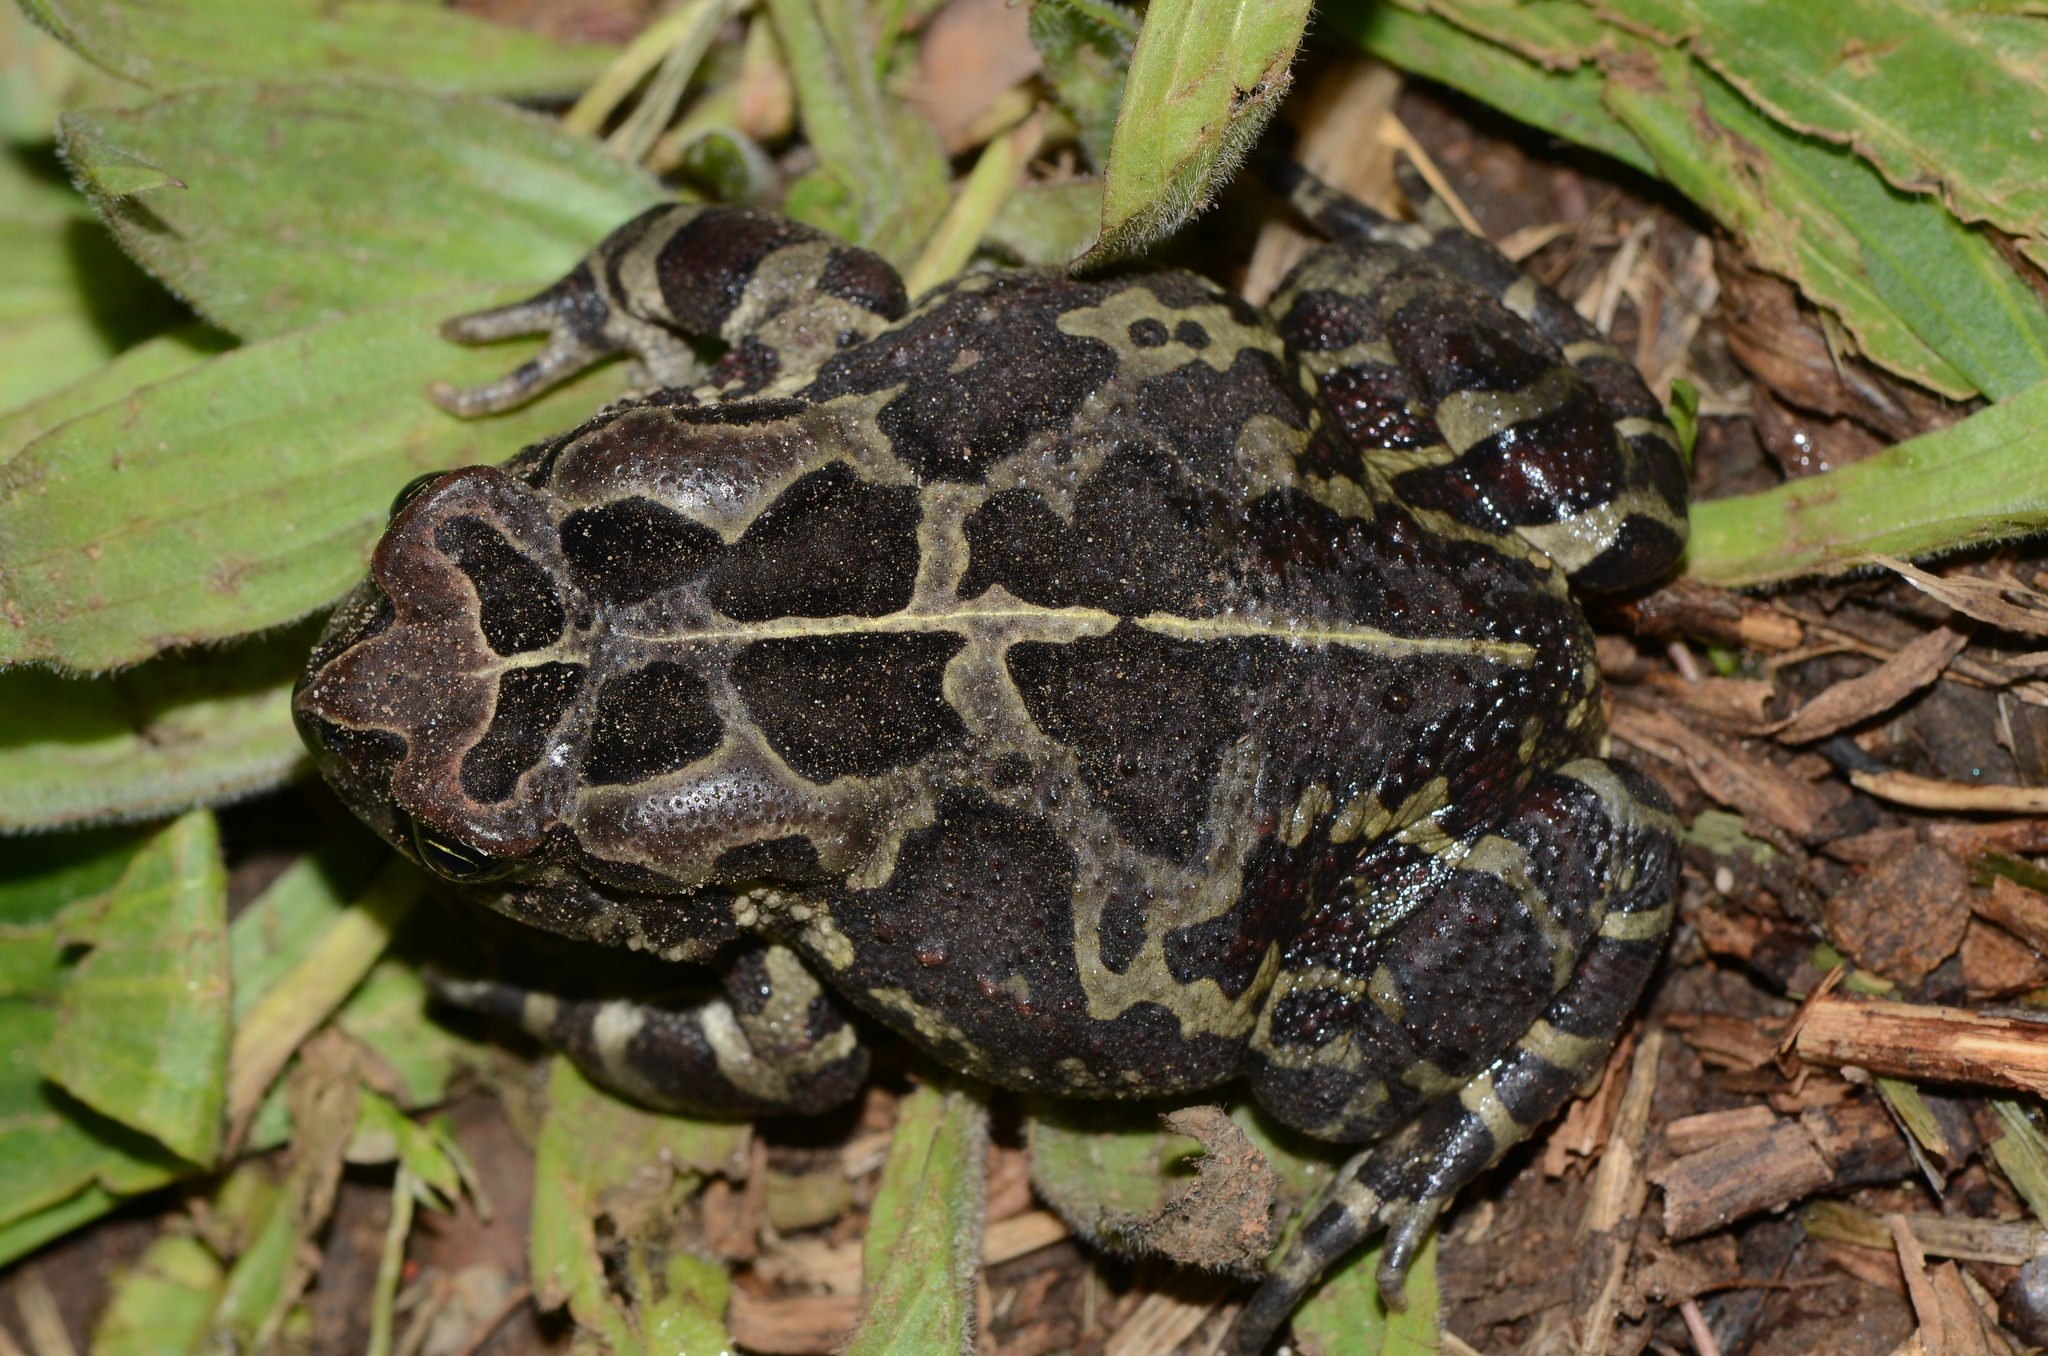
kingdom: Animalia
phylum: Chordata
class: Amphibia
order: Anura
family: Bufonidae
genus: Sclerophrys
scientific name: Sclerophrys pantherina
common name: Panther toad
